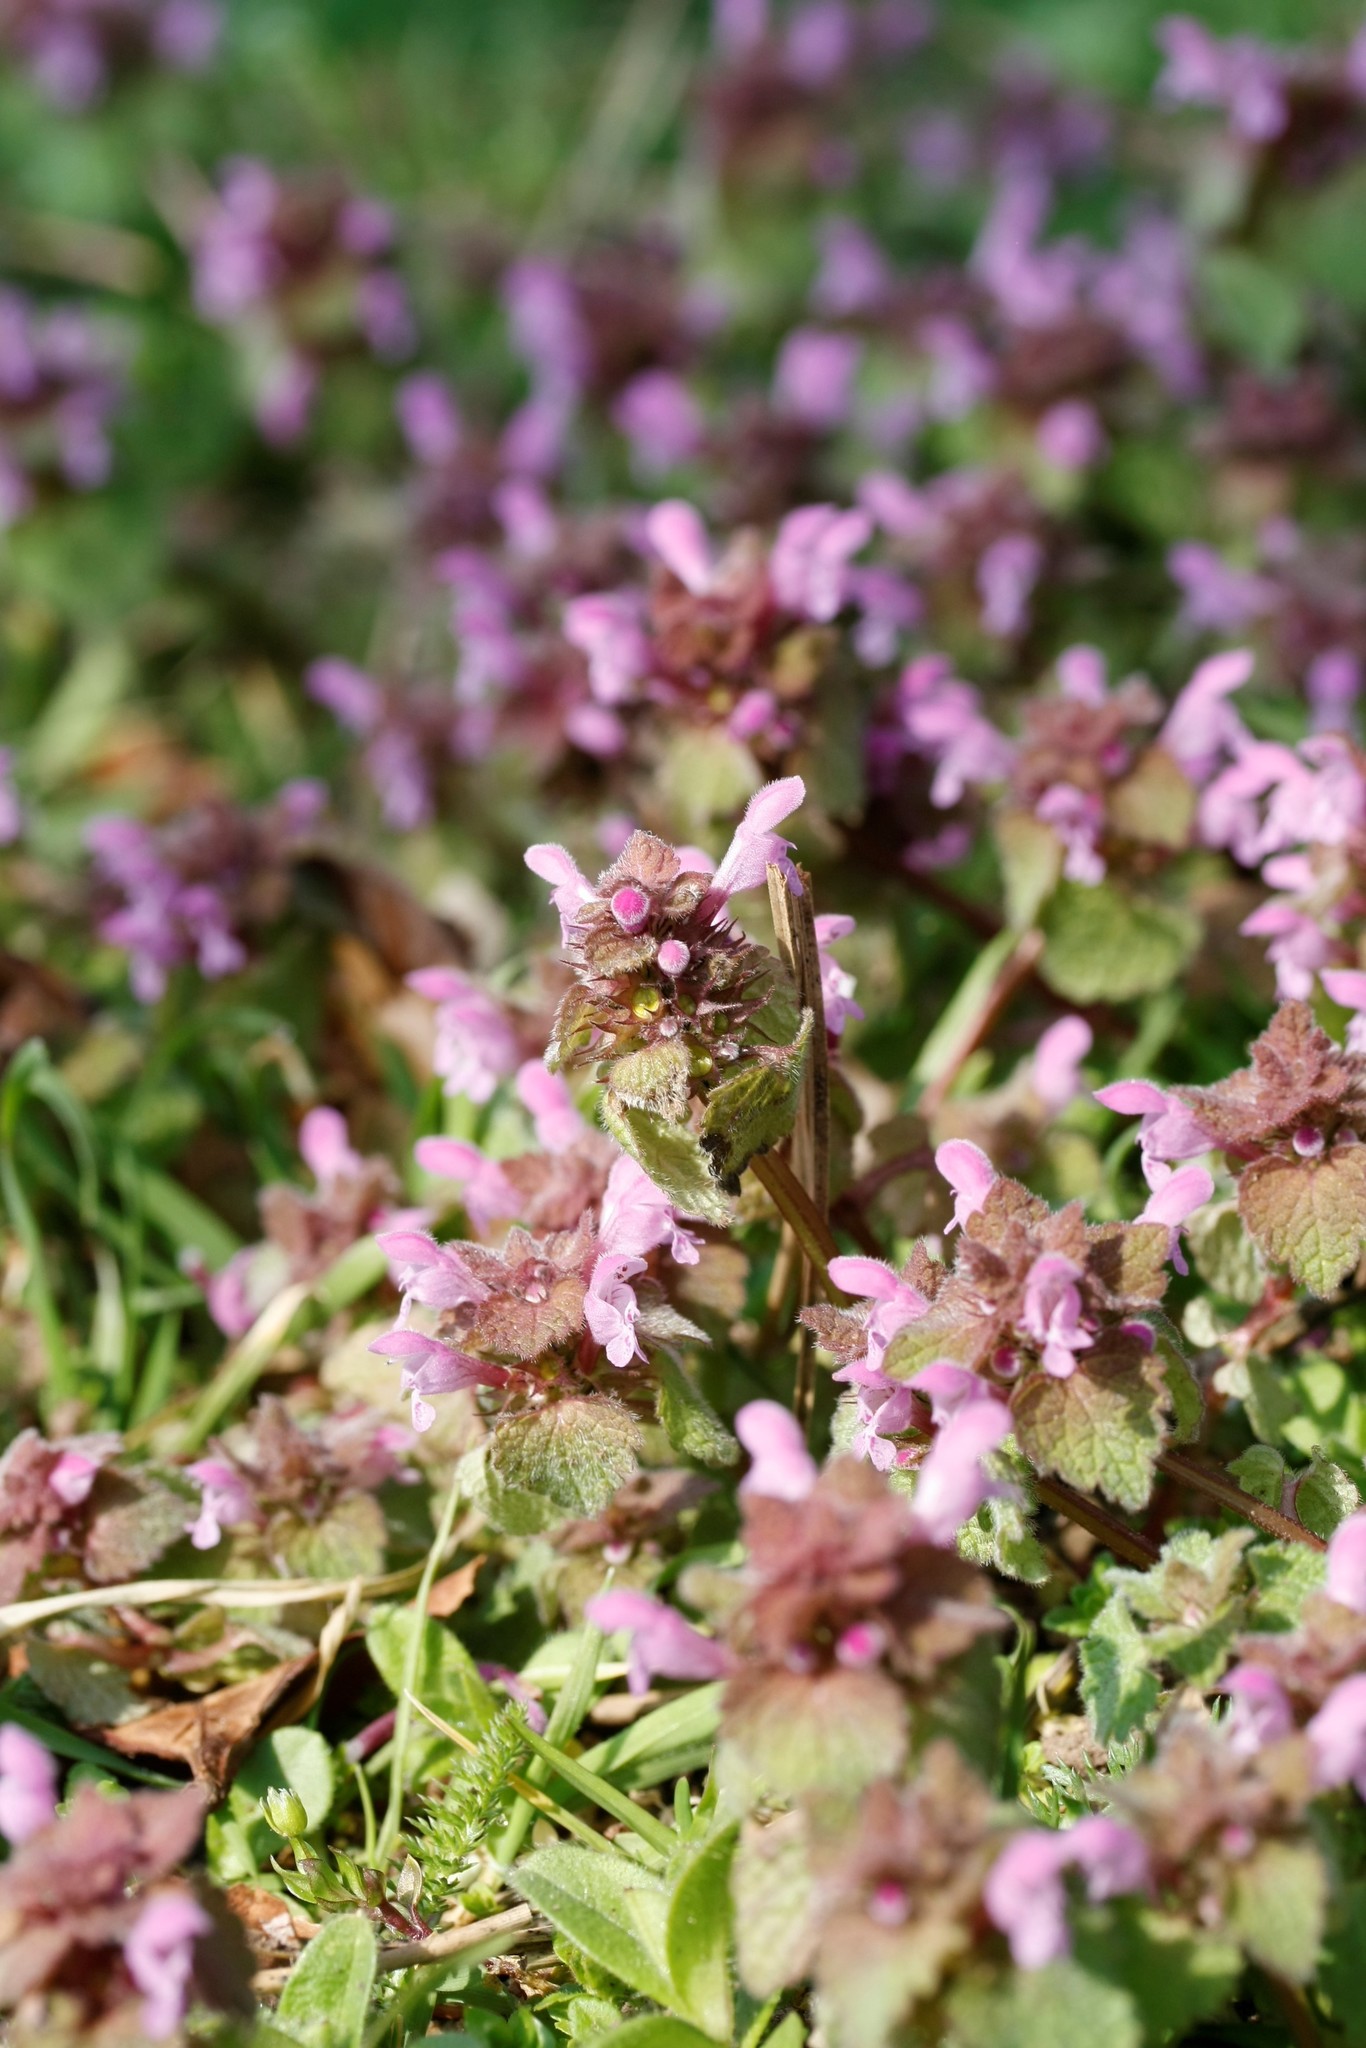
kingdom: Plantae
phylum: Tracheophyta
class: Magnoliopsida
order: Lamiales
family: Lamiaceae
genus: Lamium
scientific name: Lamium purpureum
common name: Red dead-nettle
